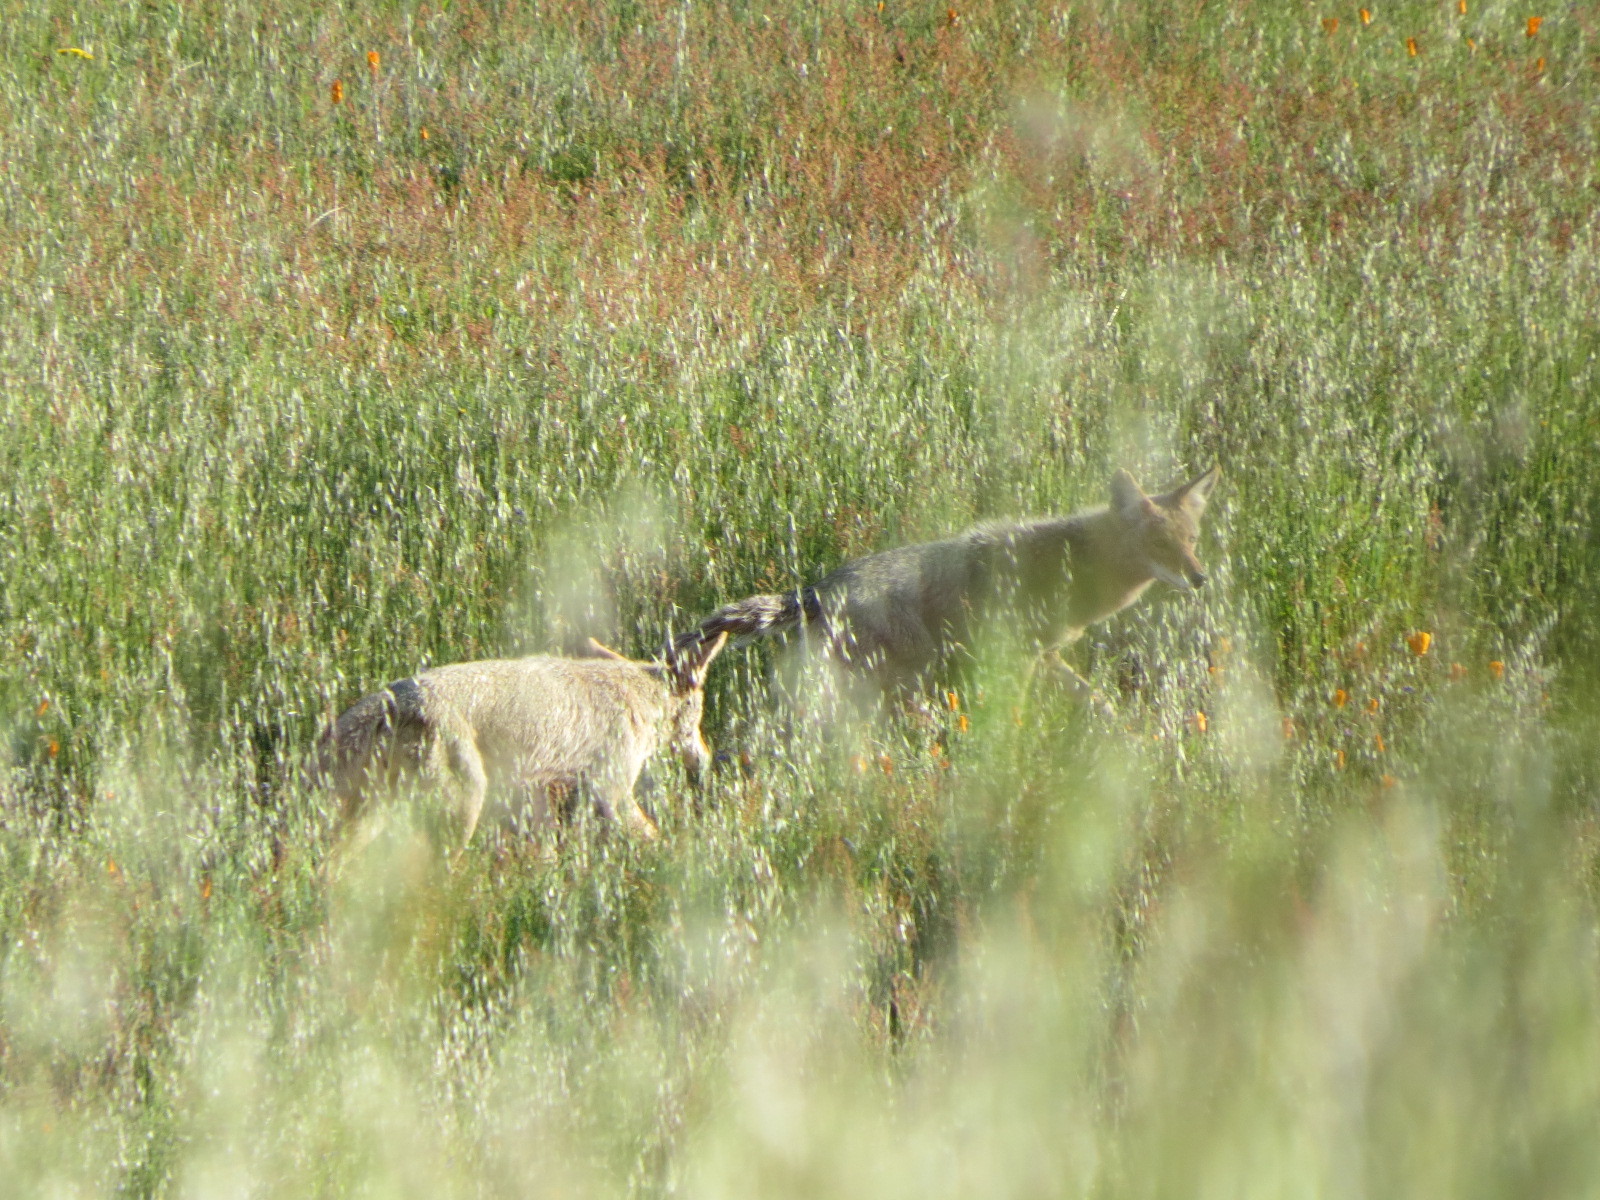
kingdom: Animalia
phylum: Chordata
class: Mammalia
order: Carnivora
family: Canidae
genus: Canis
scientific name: Canis latrans
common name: Coyote
